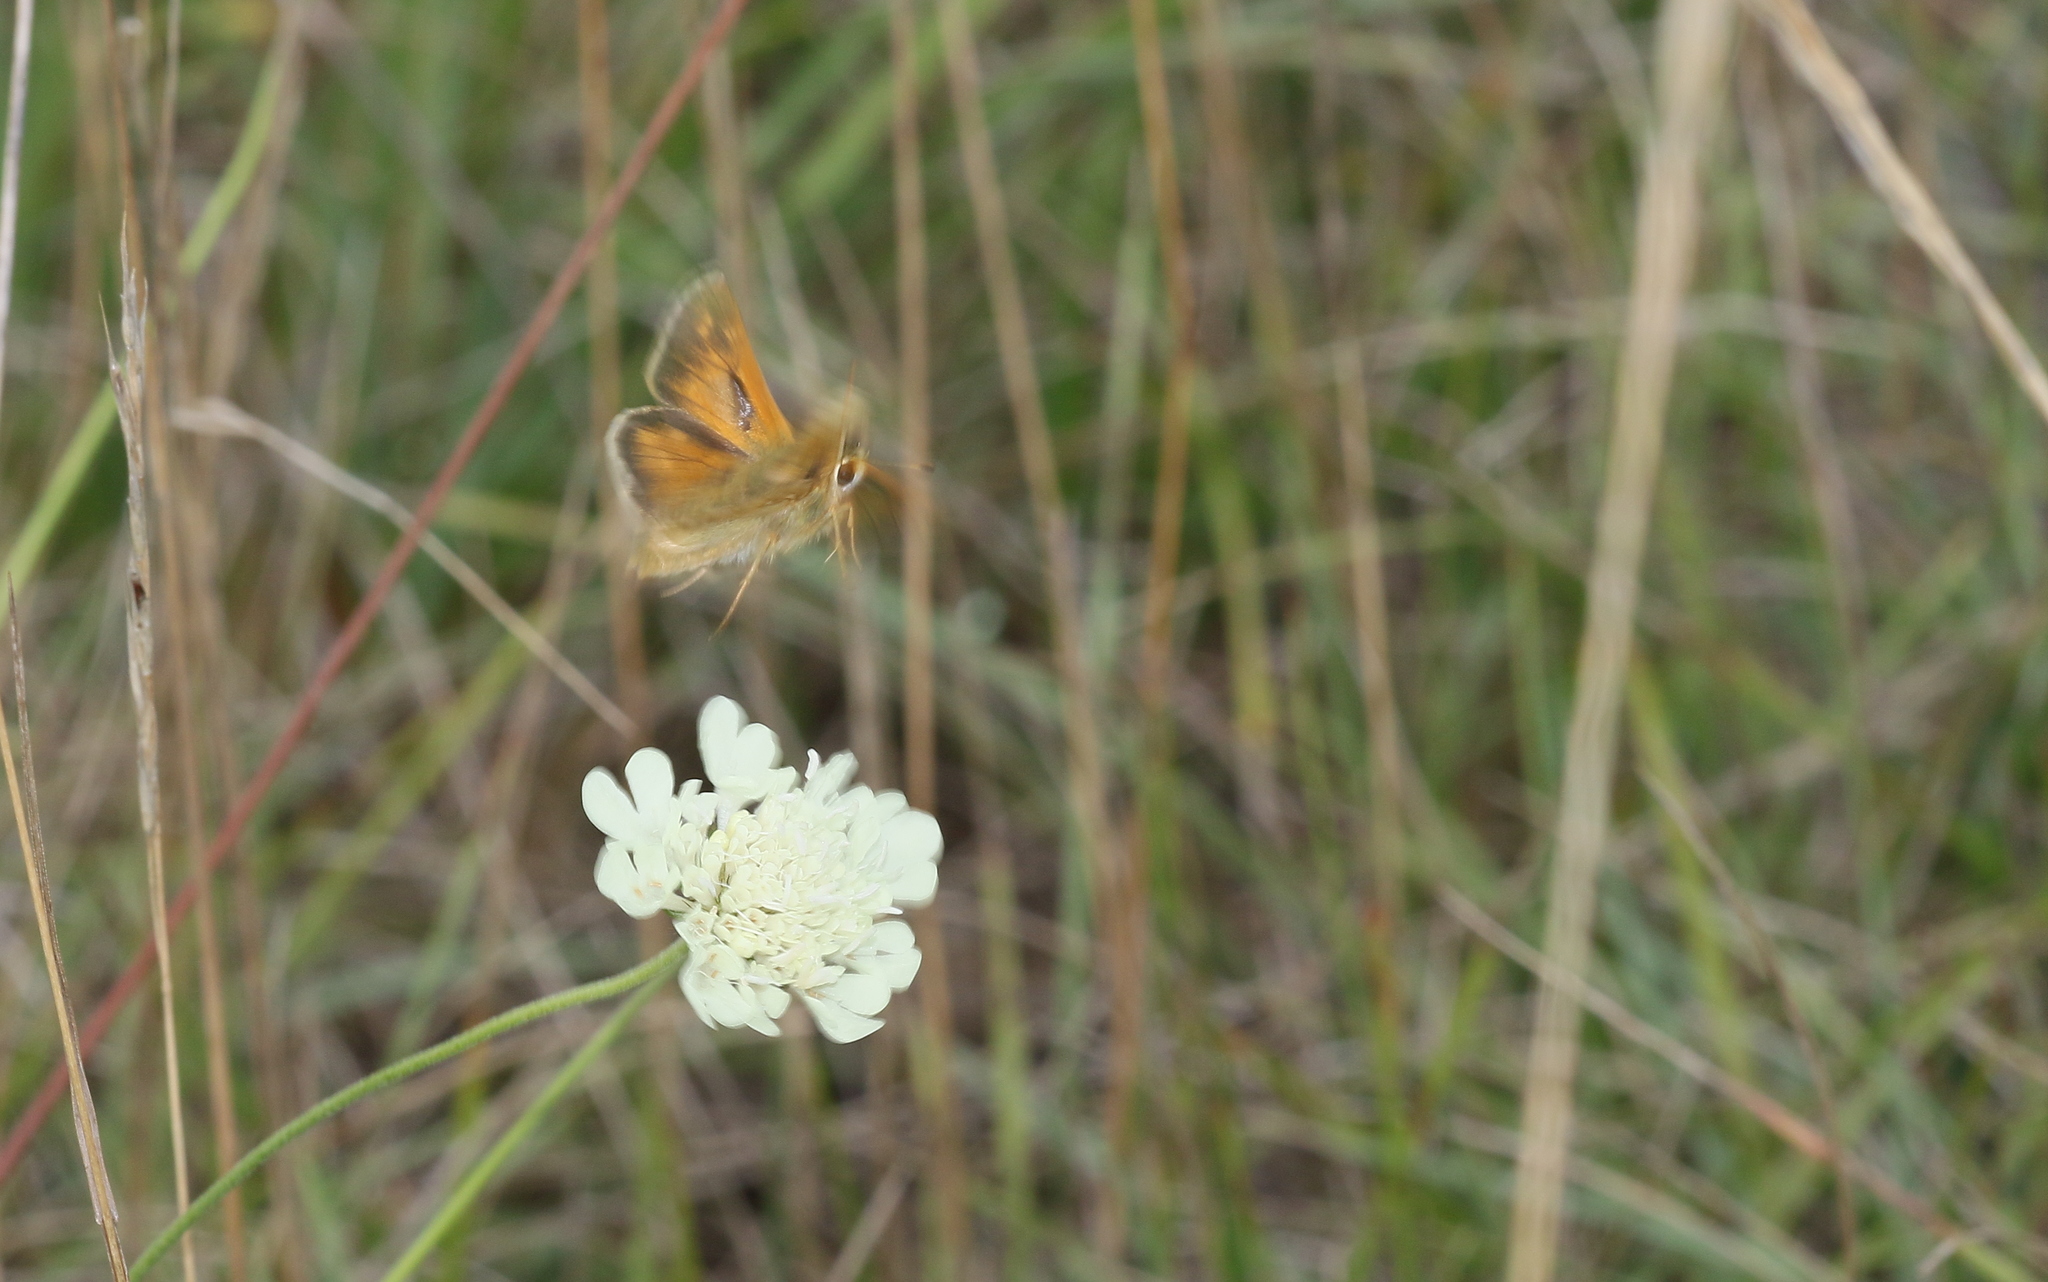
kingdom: Animalia
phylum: Arthropoda
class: Insecta
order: Lepidoptera
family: Hesperiidae
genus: Hesperia
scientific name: Hesperia comma
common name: Common branded skipper
